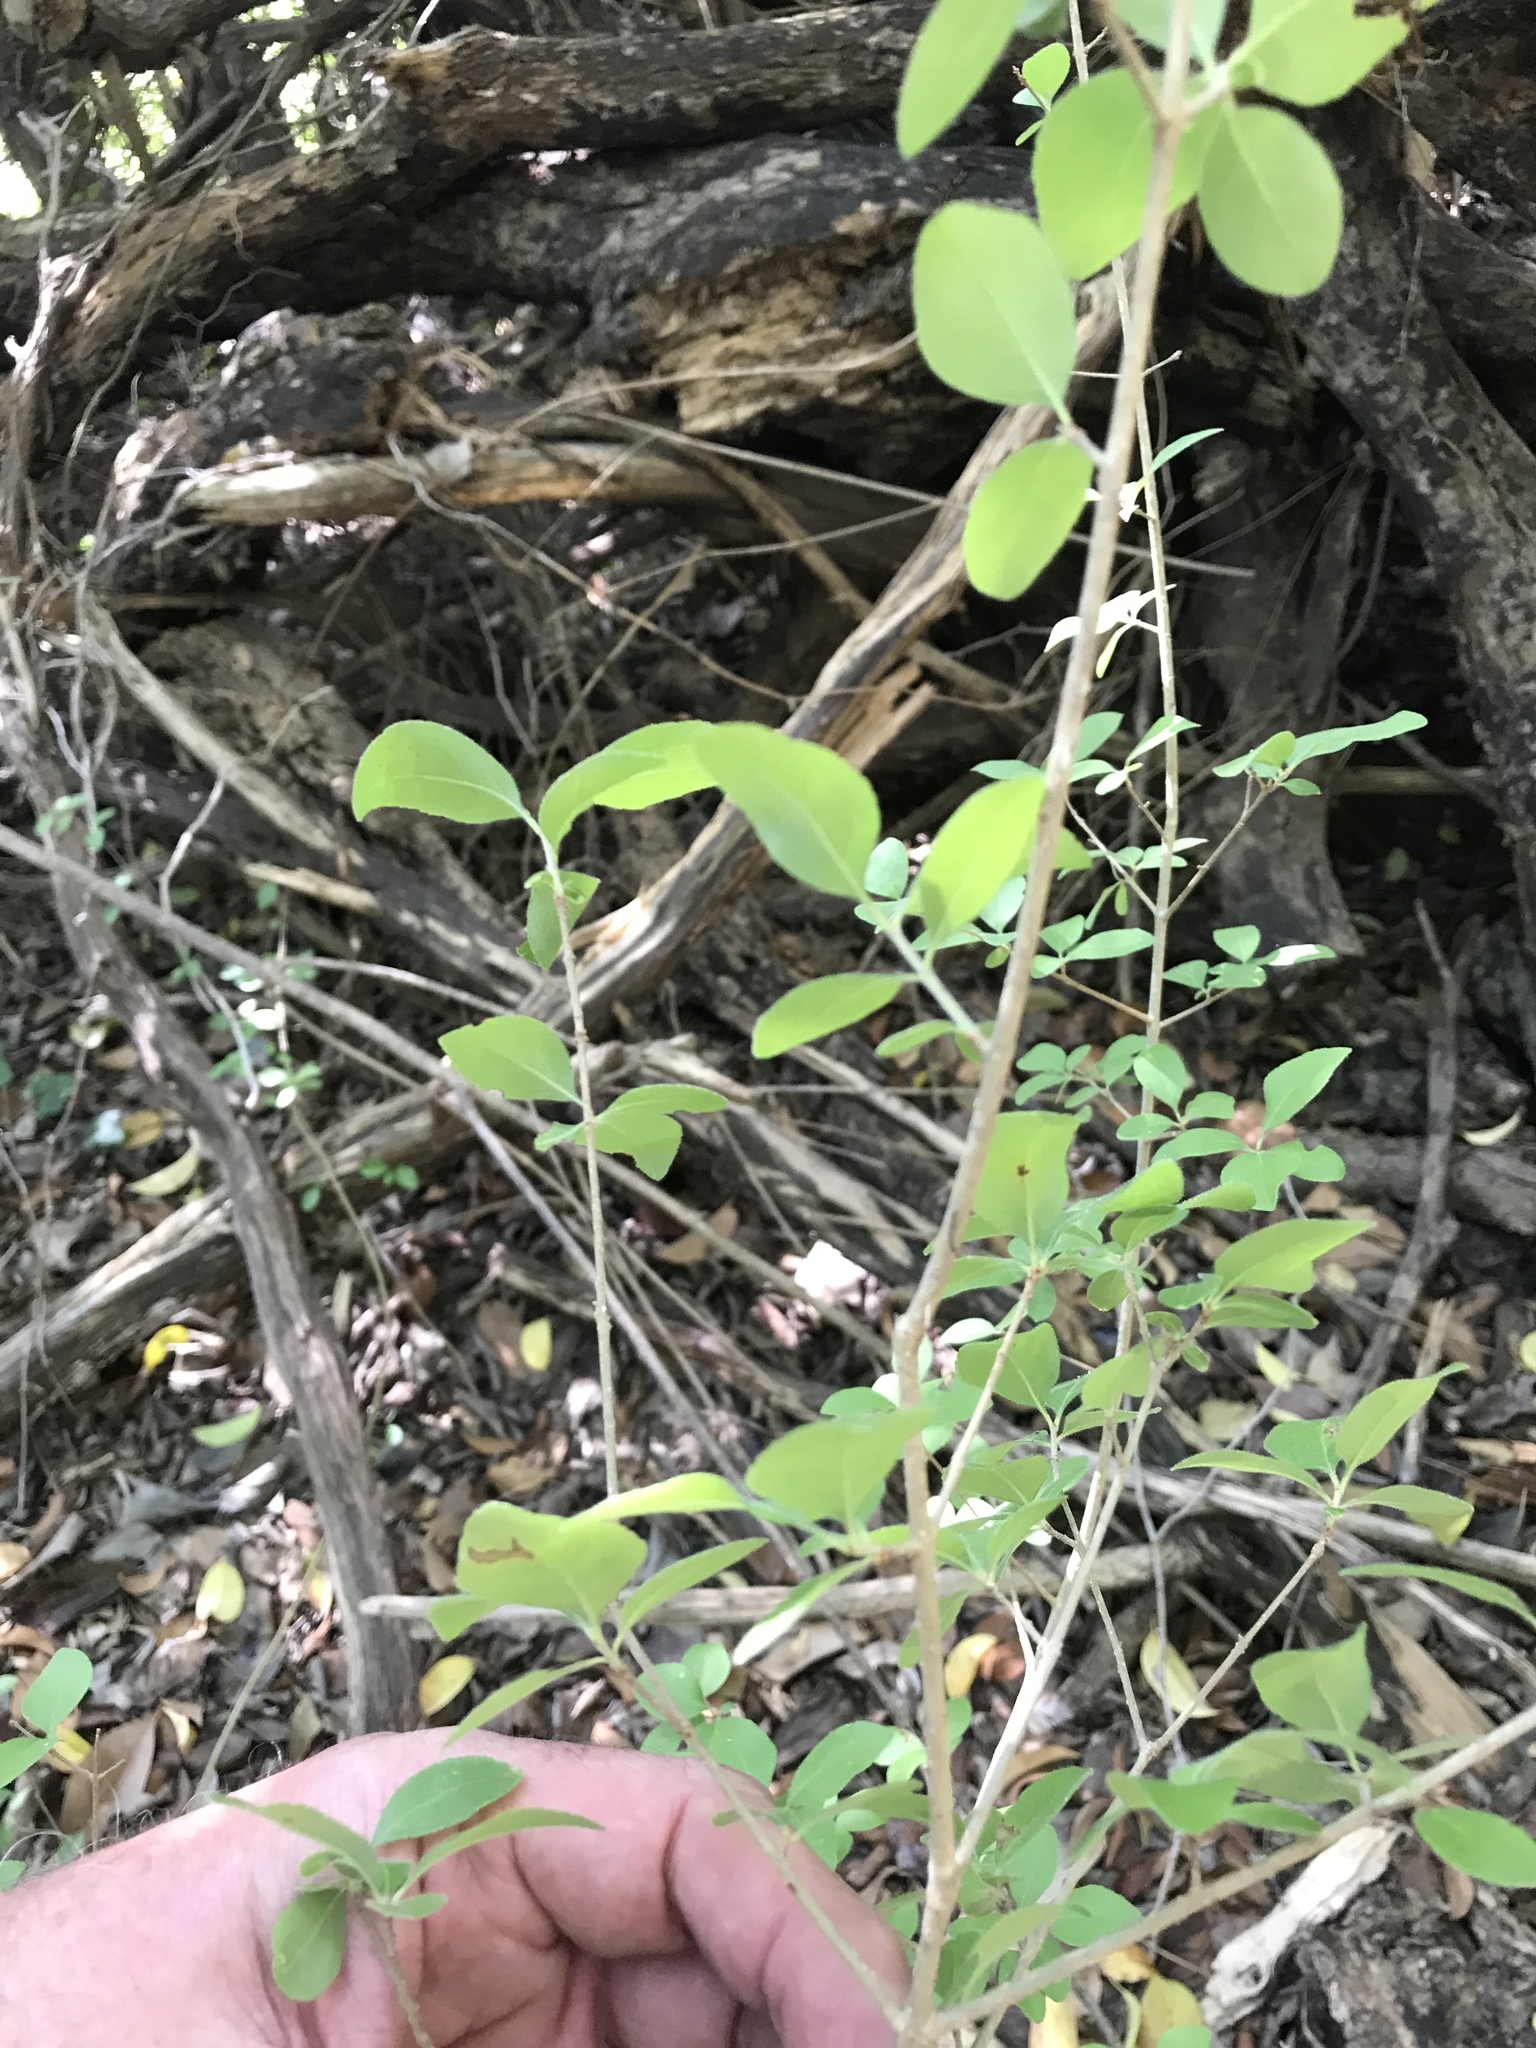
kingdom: Plantae
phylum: Tracheophyta
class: Magnoliopsida
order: Lamiales
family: Oleaceae
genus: Forestiera
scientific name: Forestiera pubescens
